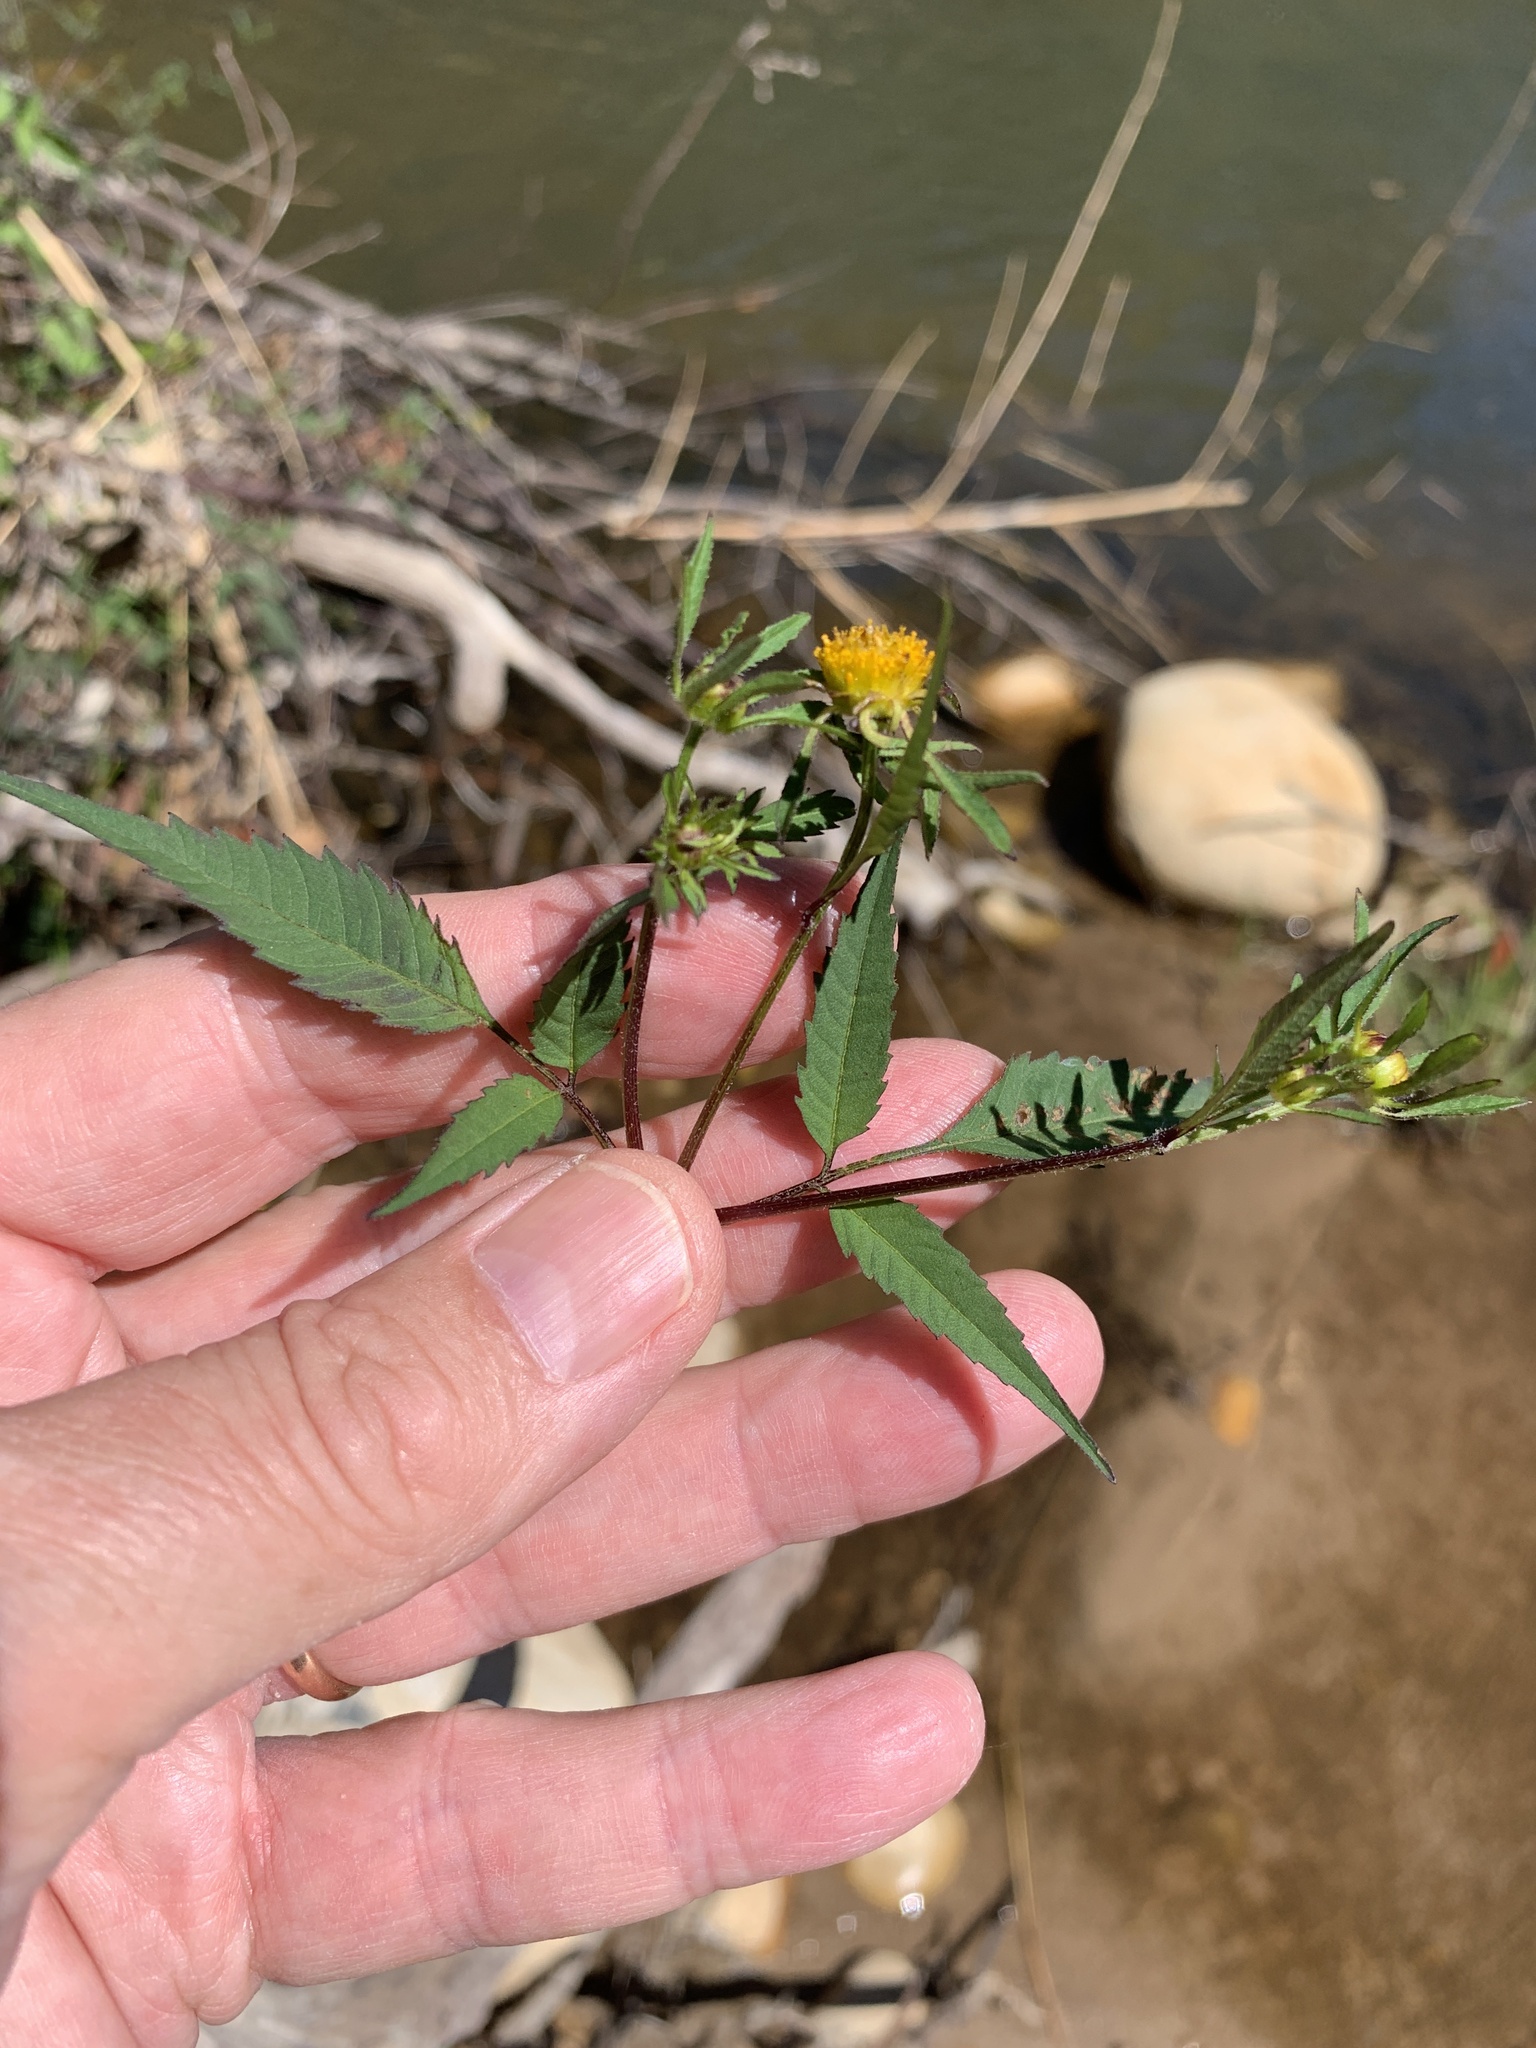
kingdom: Plantae
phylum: Tracheophyta
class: Magnoliopsida
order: Asterales
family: Asteraceae
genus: Bidens
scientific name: Bidens frondosa
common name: Beggarticks
